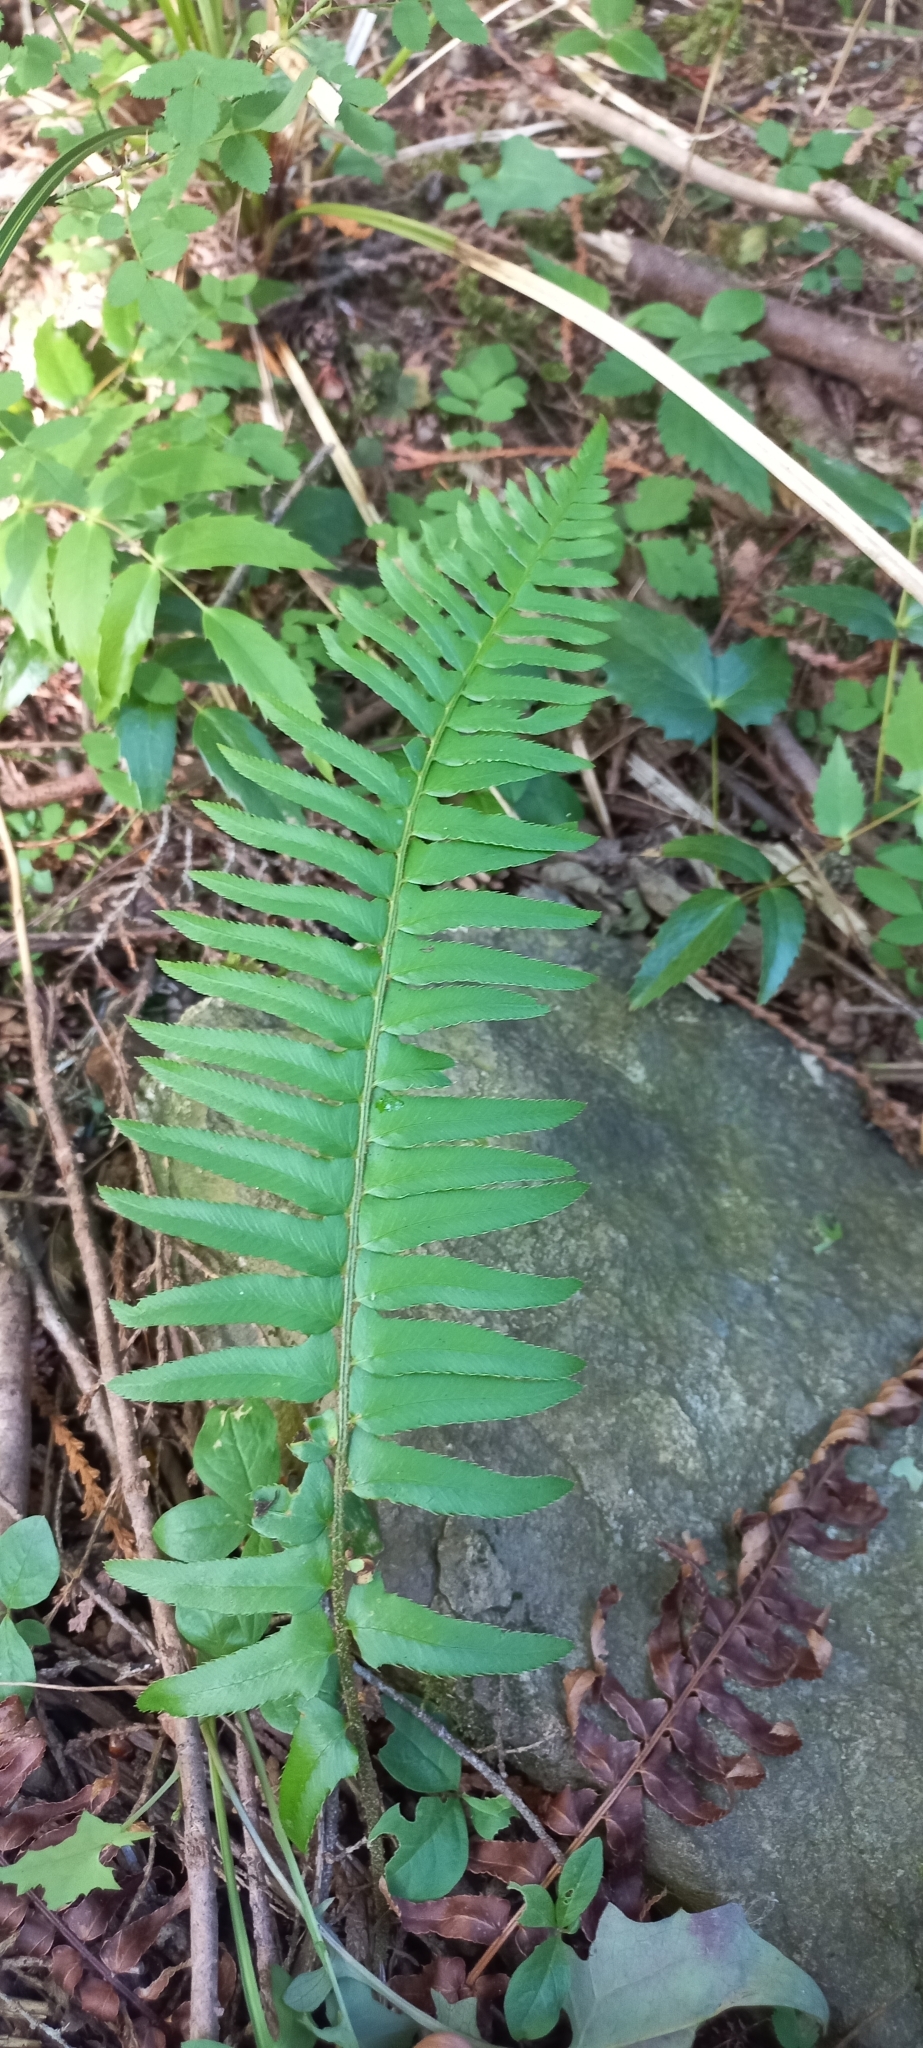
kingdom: Plantae
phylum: Tracheophyta
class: Polypodiopsida
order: Polypodiales
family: Dryopteridaceae
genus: Polystichum
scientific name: Polystichum munitum
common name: Western sword-fern
